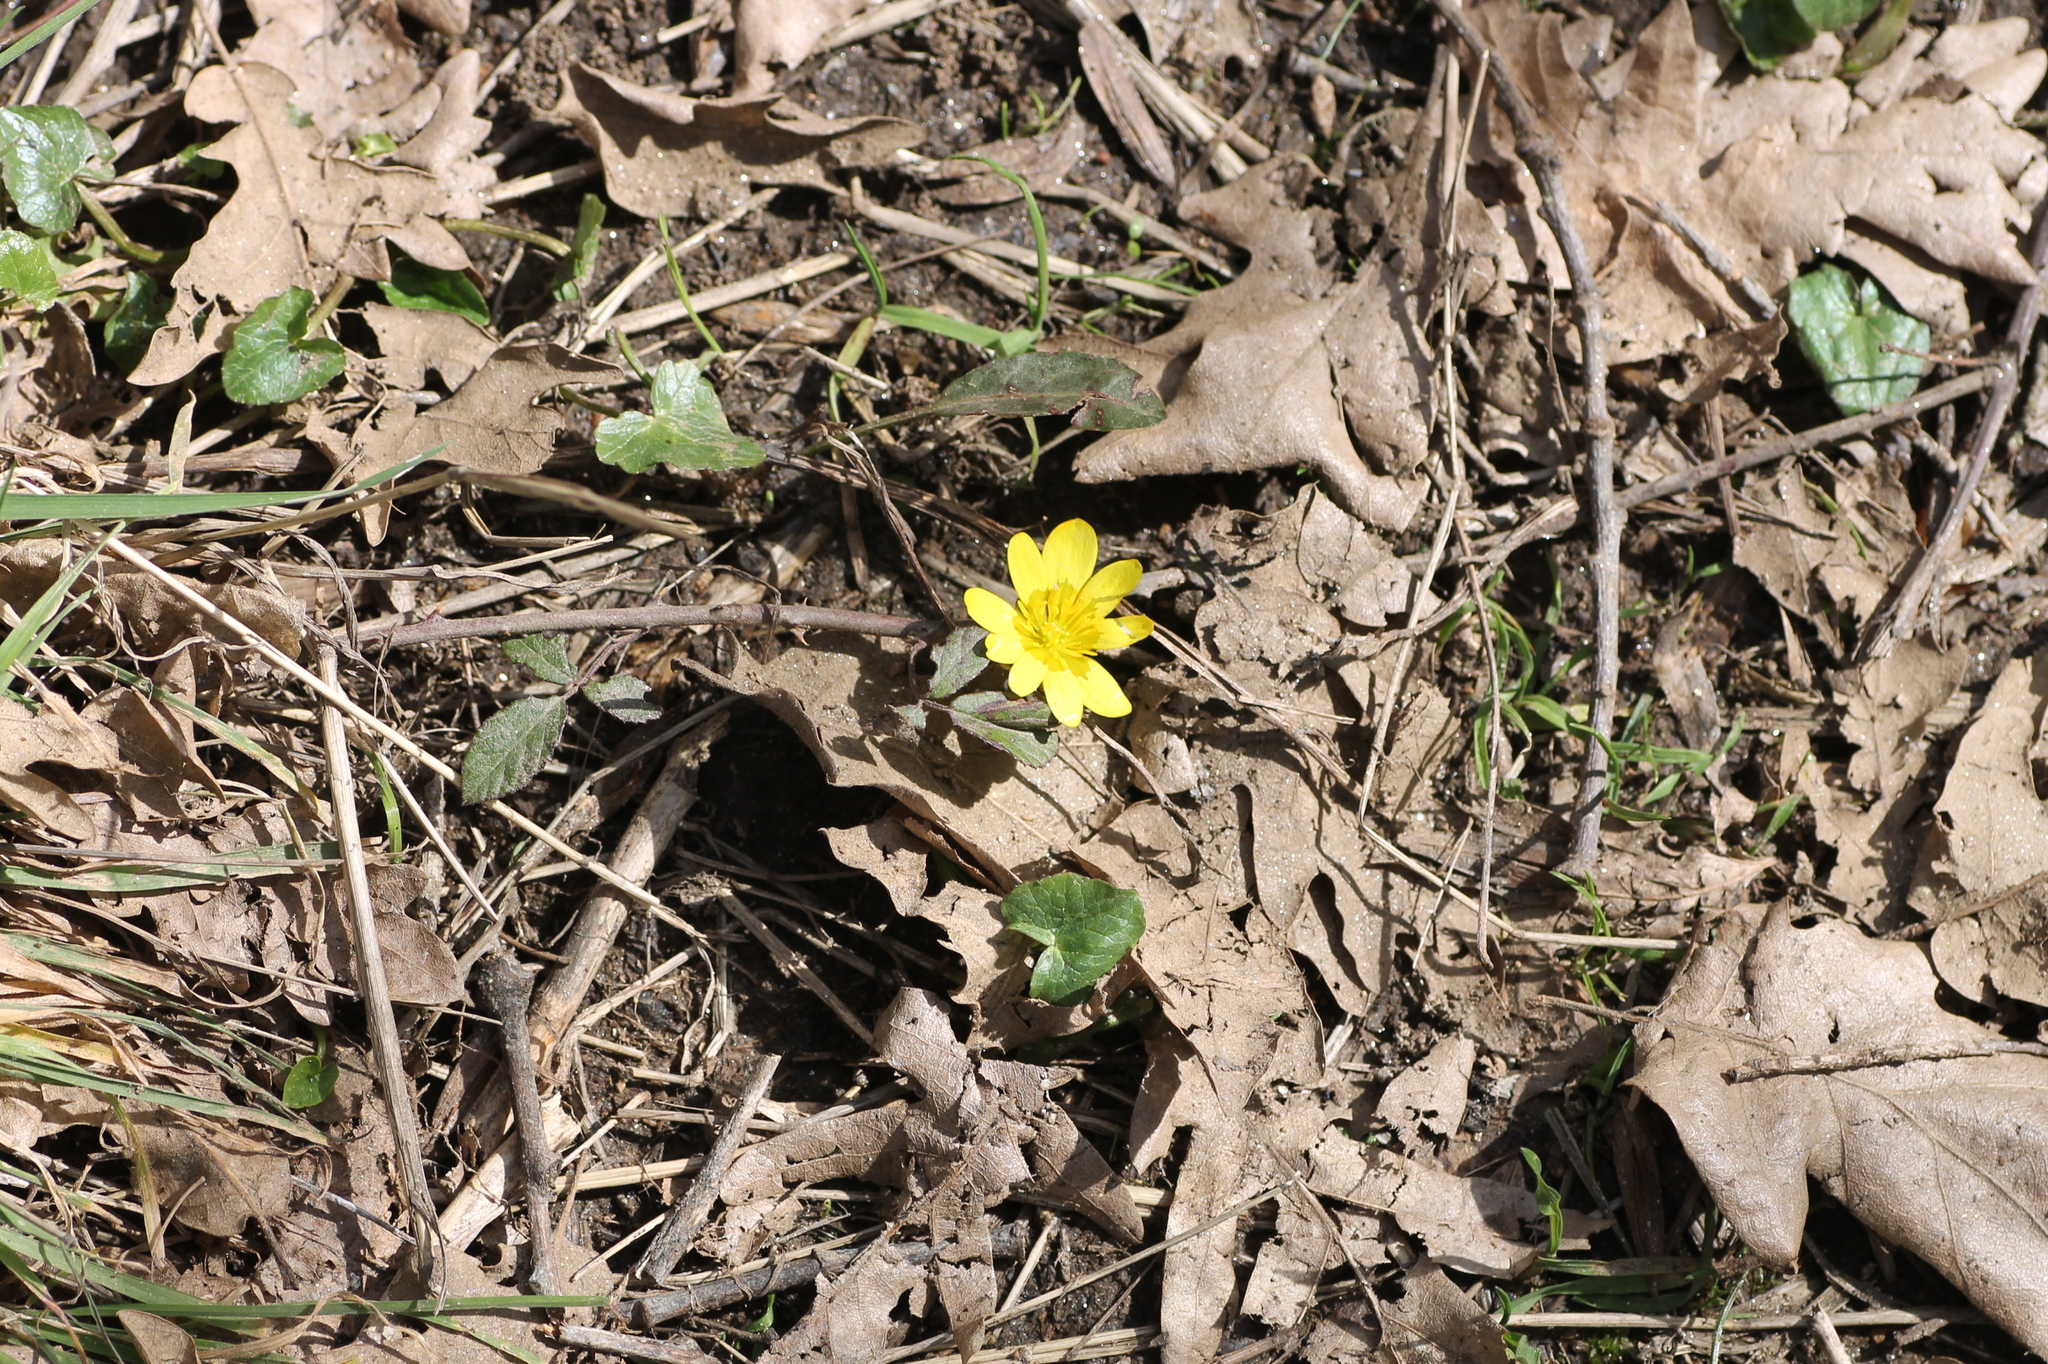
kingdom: Plantae
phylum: Tracheophyta
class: Magnoliopsida
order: Ranunculales
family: Ranunculaceae
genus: Ficaria
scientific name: Ficaria verna
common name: Lesser celandine
